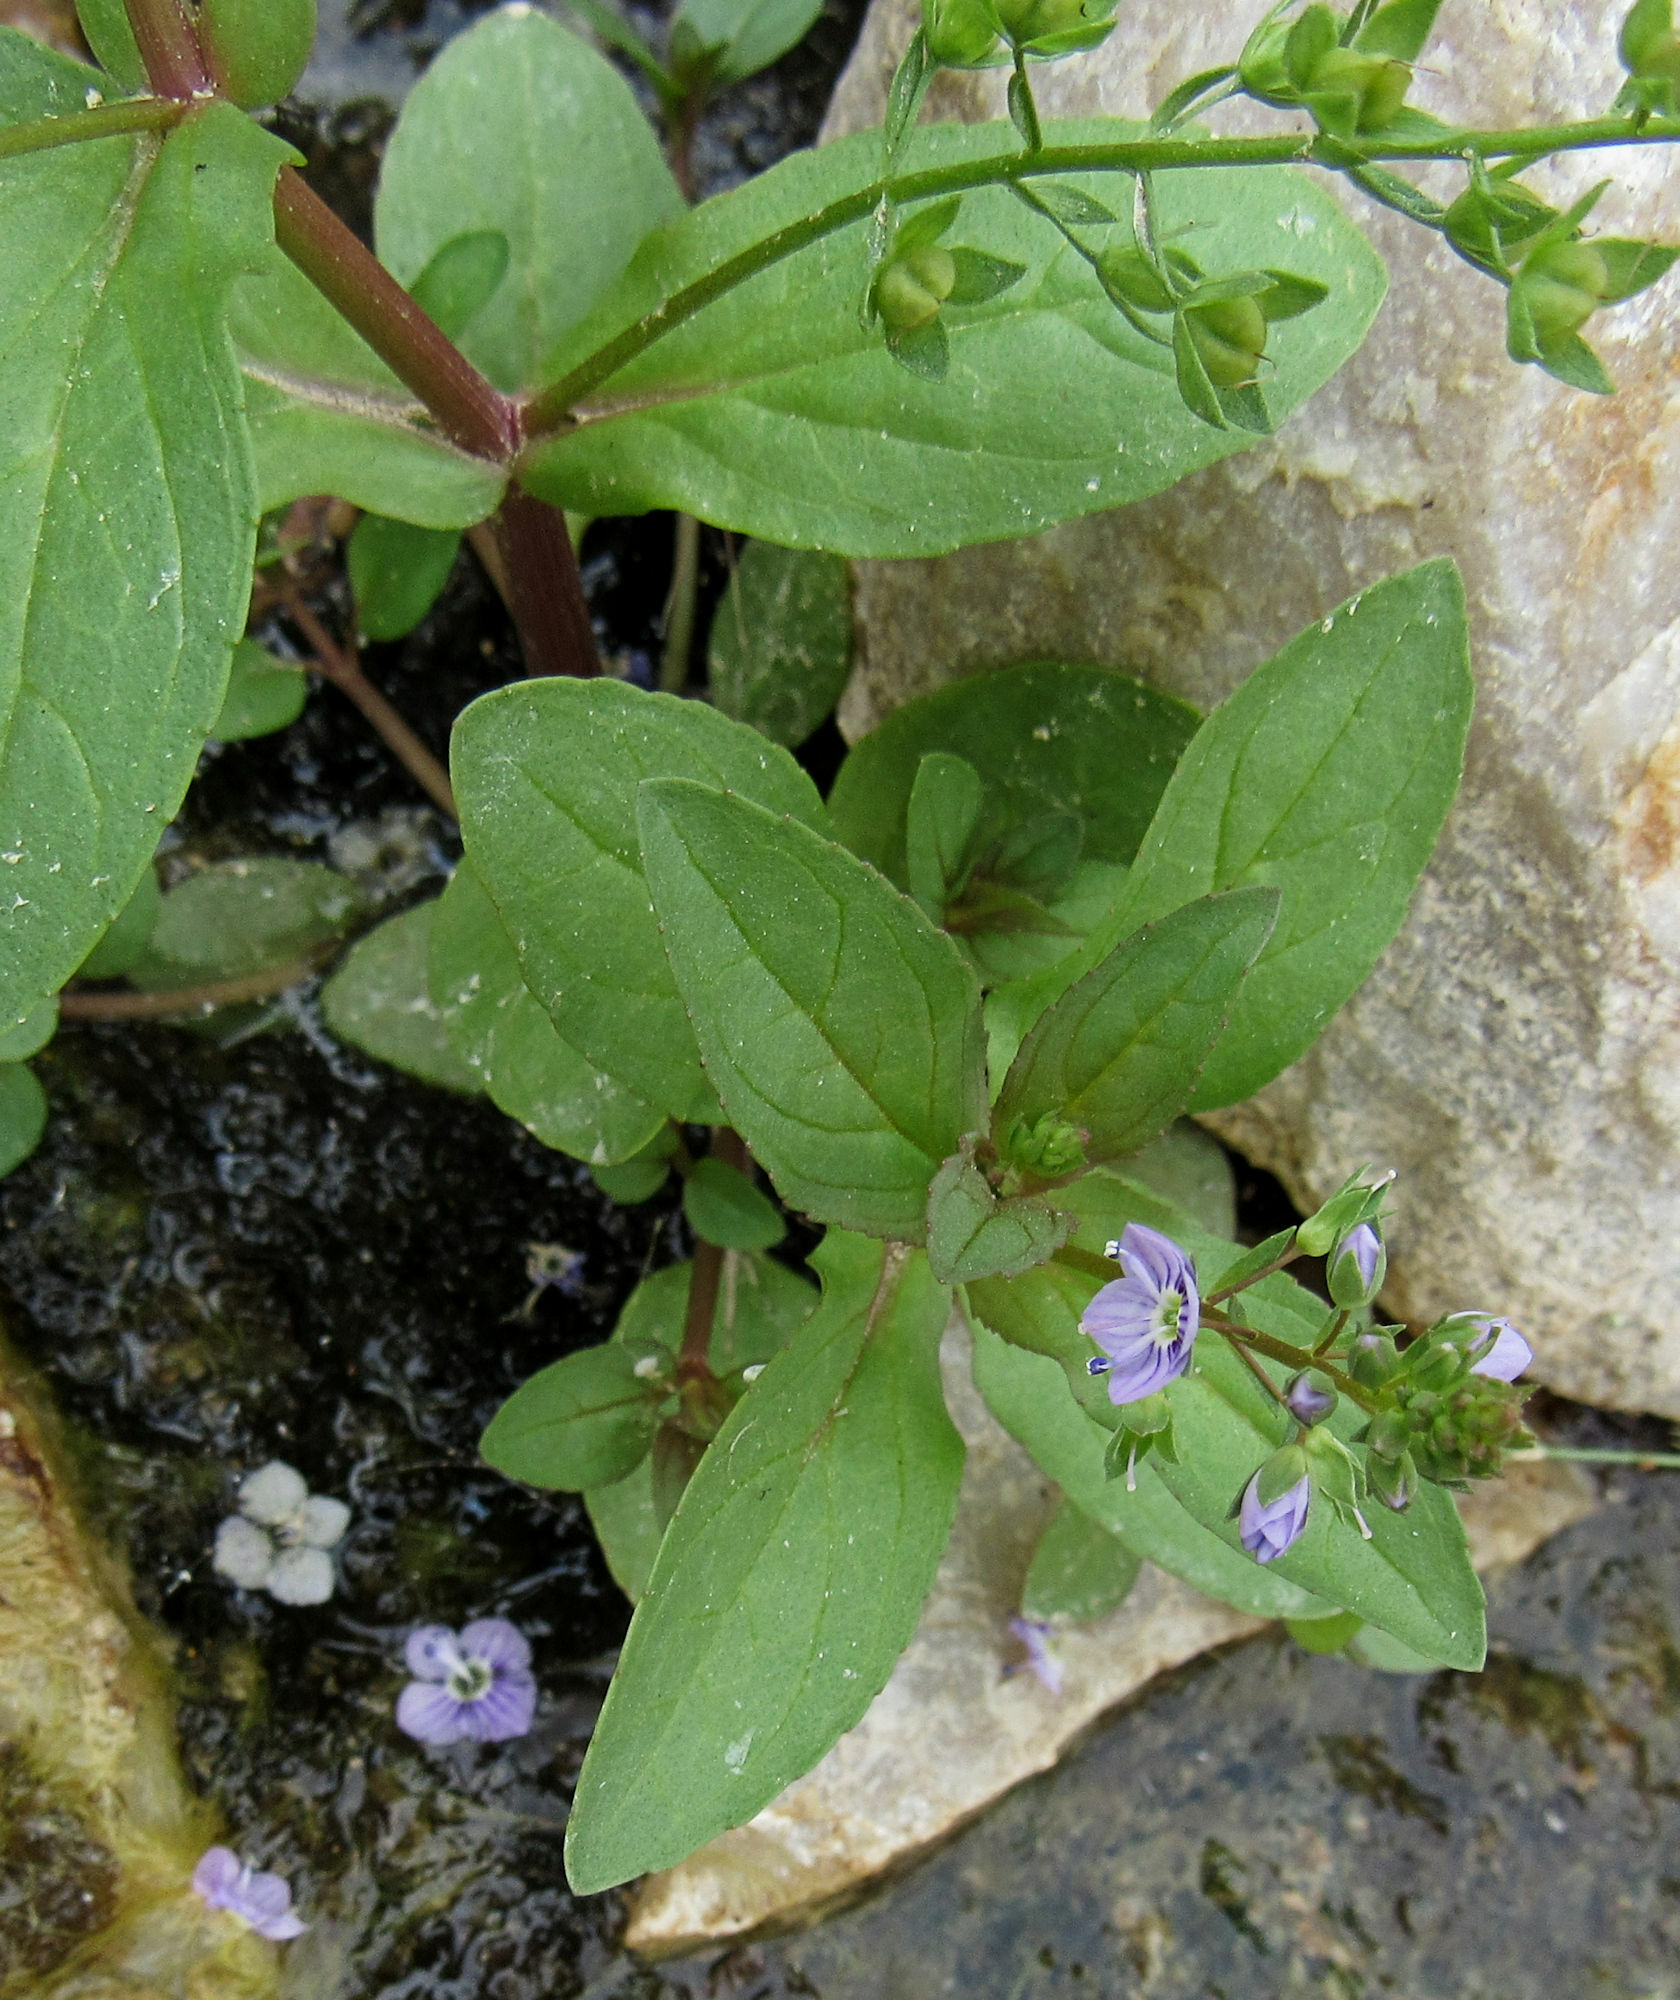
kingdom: Plantae
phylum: Tracheophyta
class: Magnoliopsida
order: Lamiales
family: Plantaginaceae
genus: Veronica
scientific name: Veronica anagallis-aquatica
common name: Water speedwell
